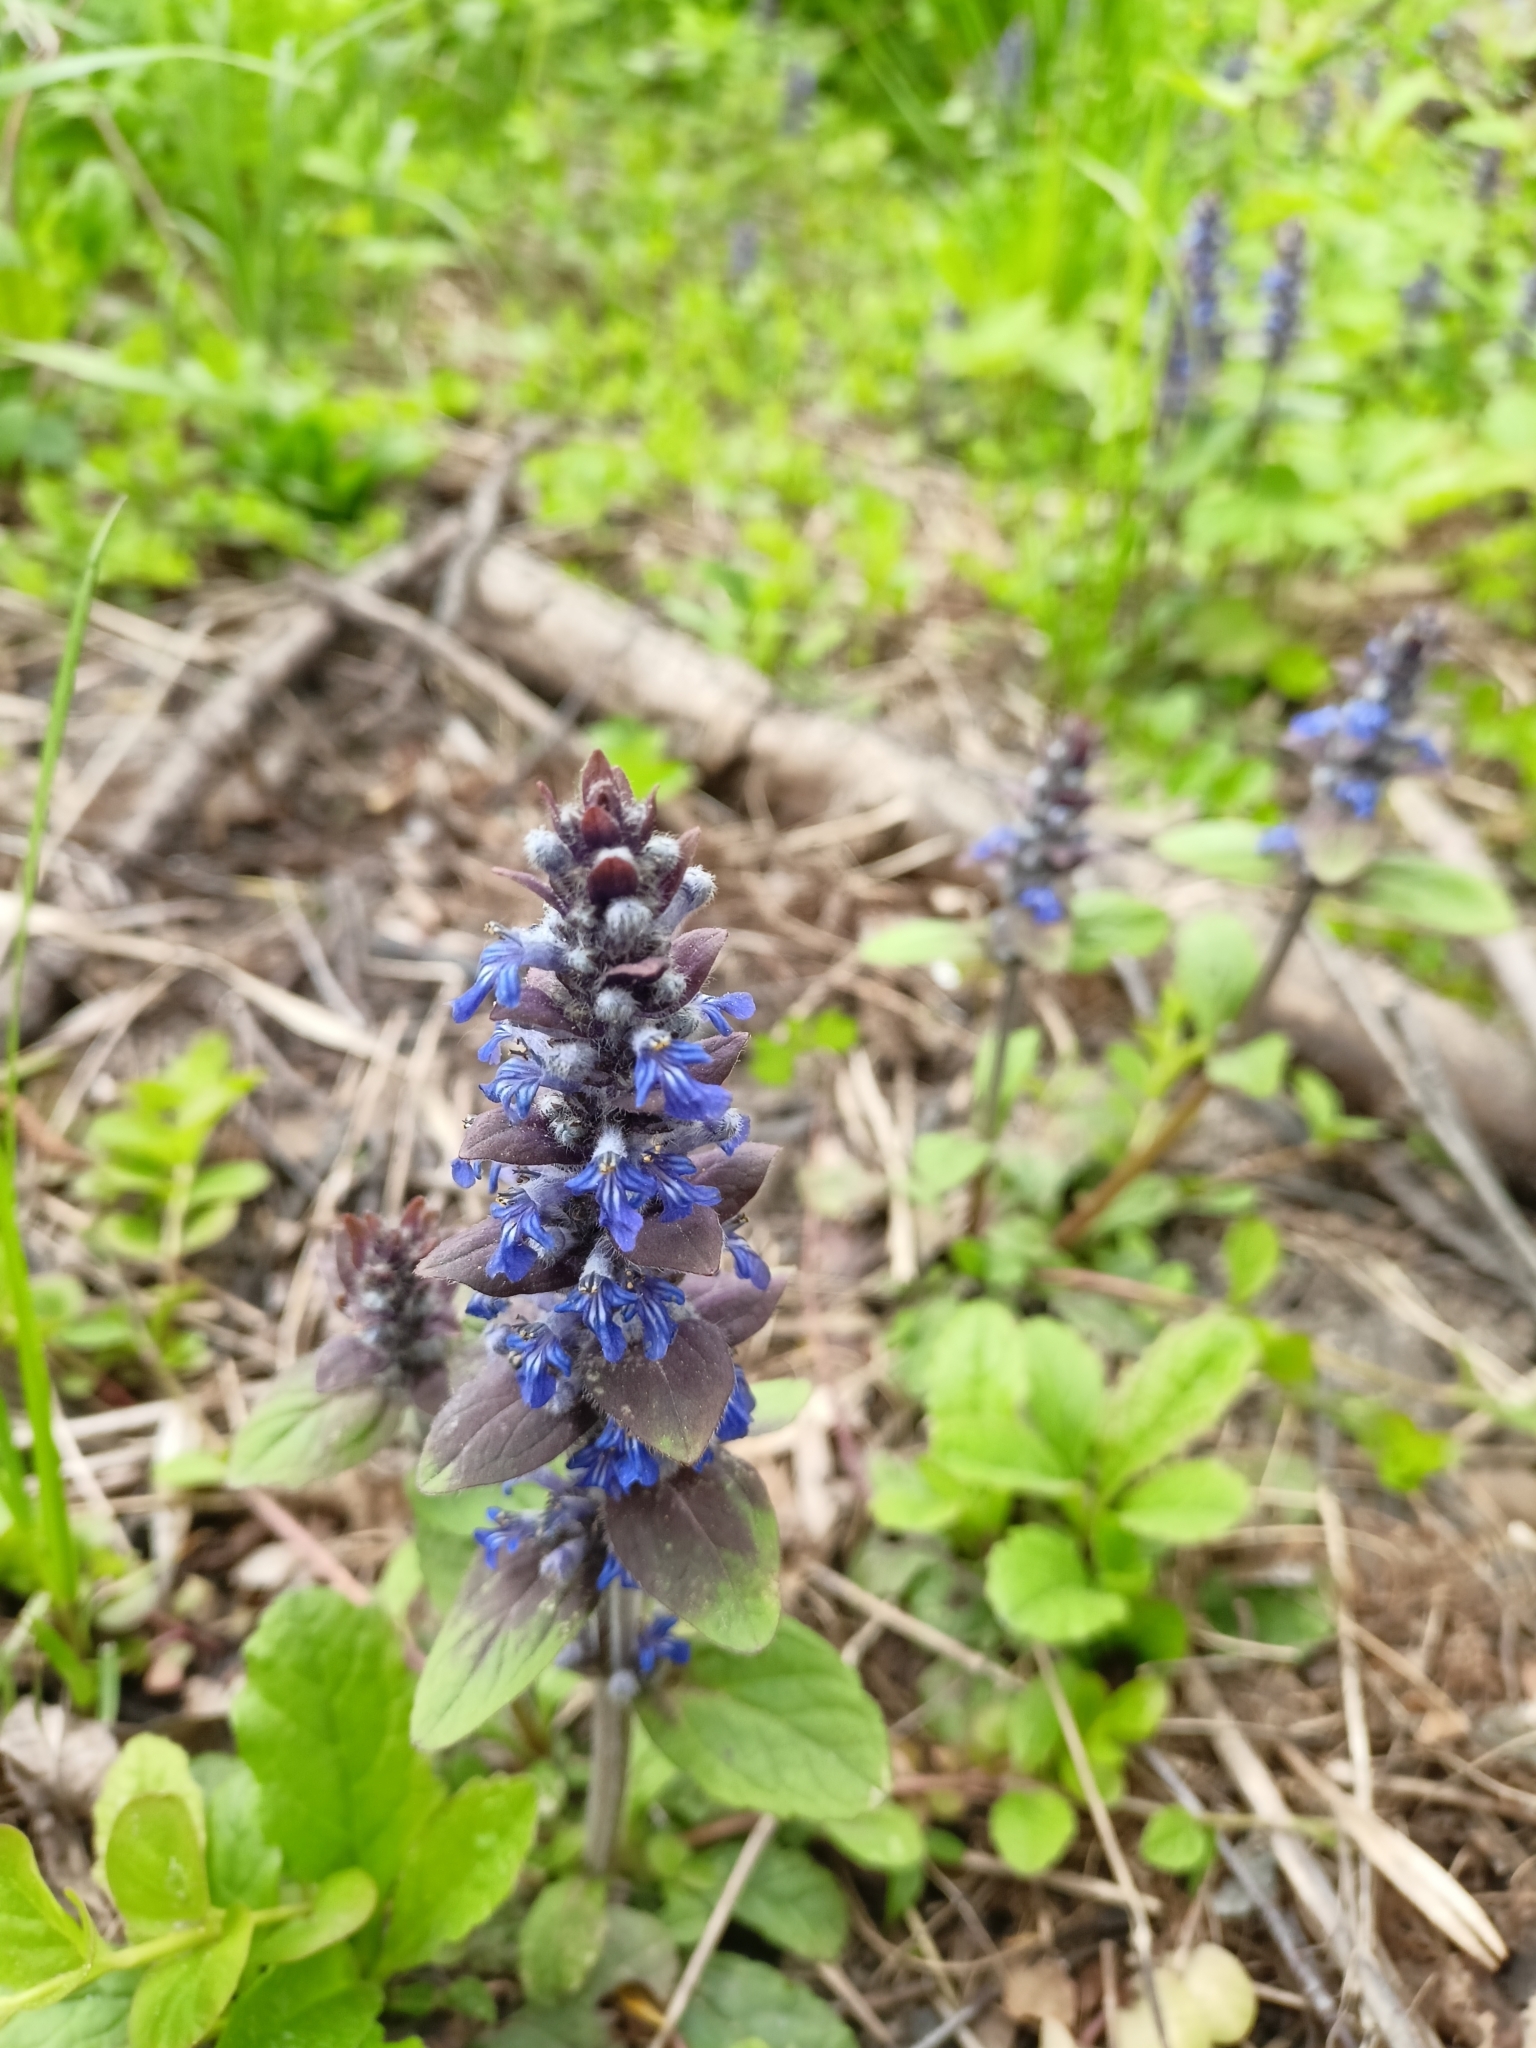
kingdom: Plantae
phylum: Tracheophyta
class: Magnoliopsida
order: Lamiales
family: Lamiaceae
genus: Ajuga
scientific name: Ajuga reptans
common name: Bugle
